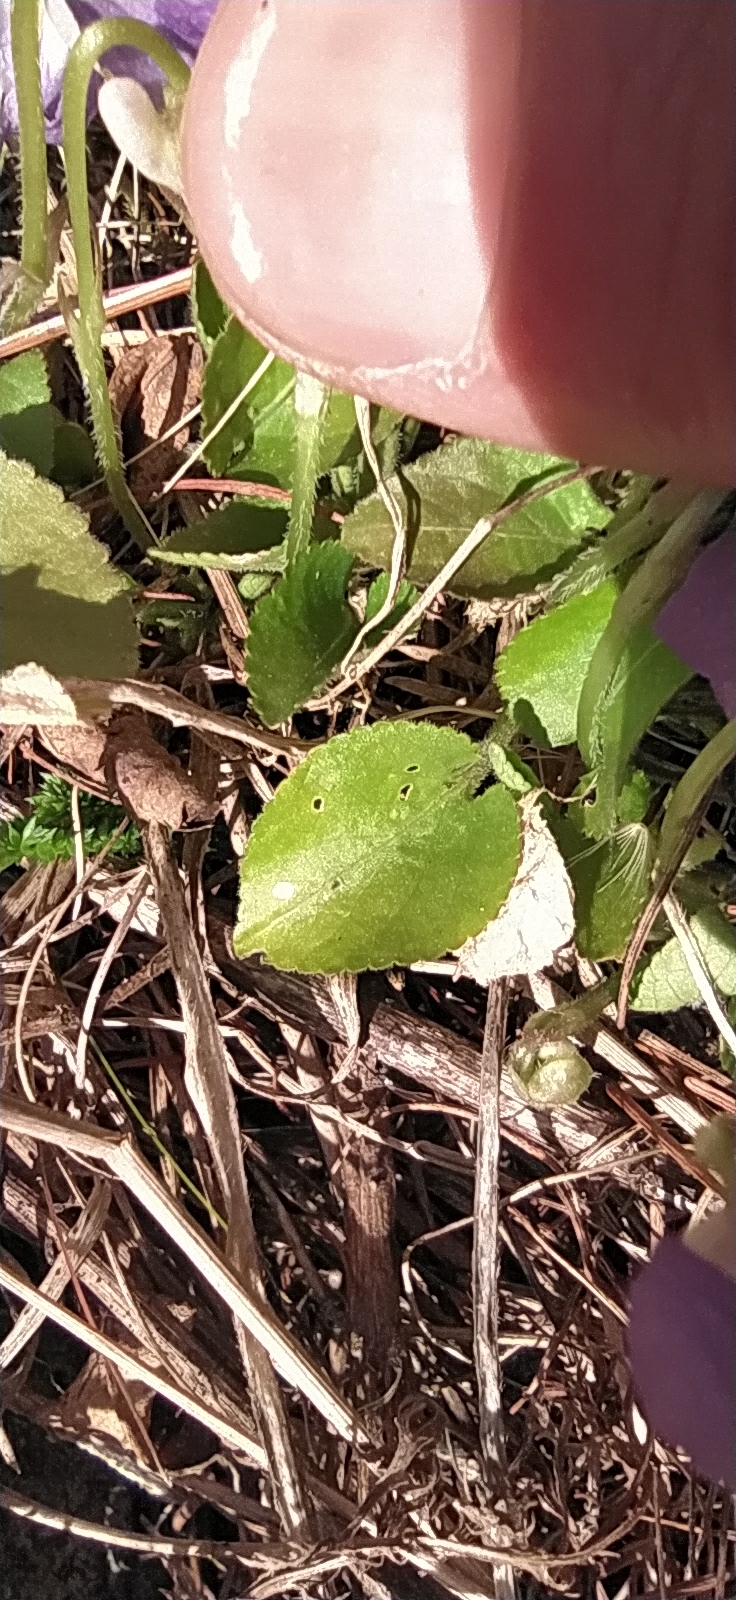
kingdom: Plantae
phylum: Tracheophyta
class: Magnoliopsida
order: Malpighiales
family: Violaceae
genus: Viola
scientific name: Viola collina
